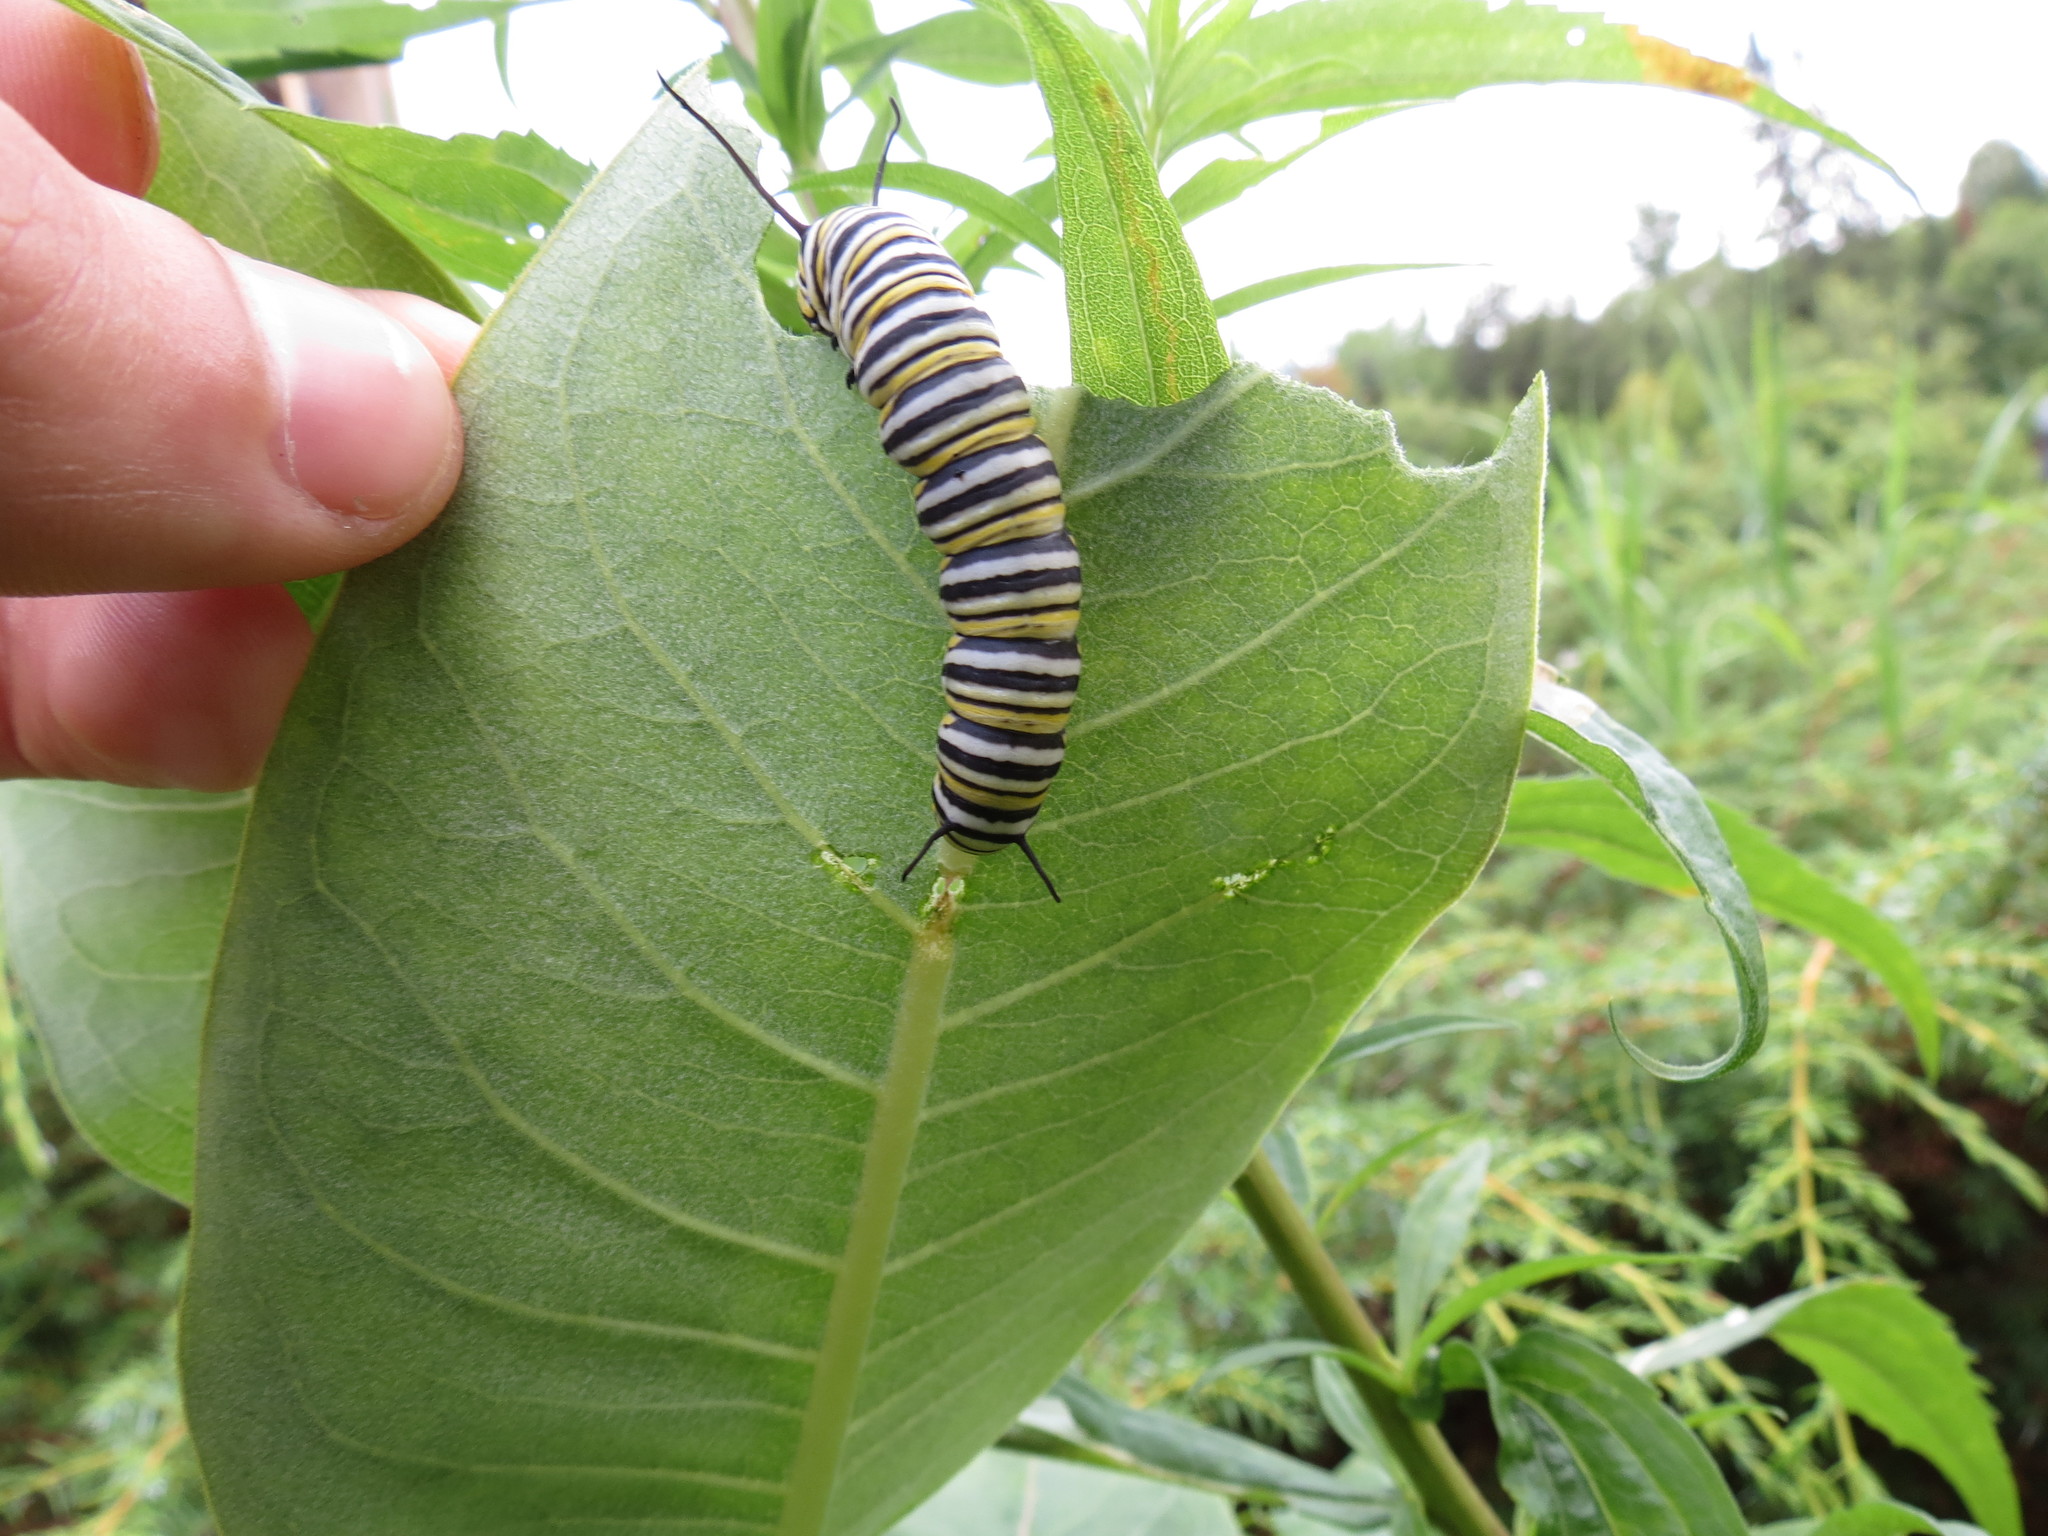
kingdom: Animalia
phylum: Arthropoda
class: Insecta
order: Lepidoptera
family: Nymphalidae
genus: Danaus
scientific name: Danaus plexippus
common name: Monarch
